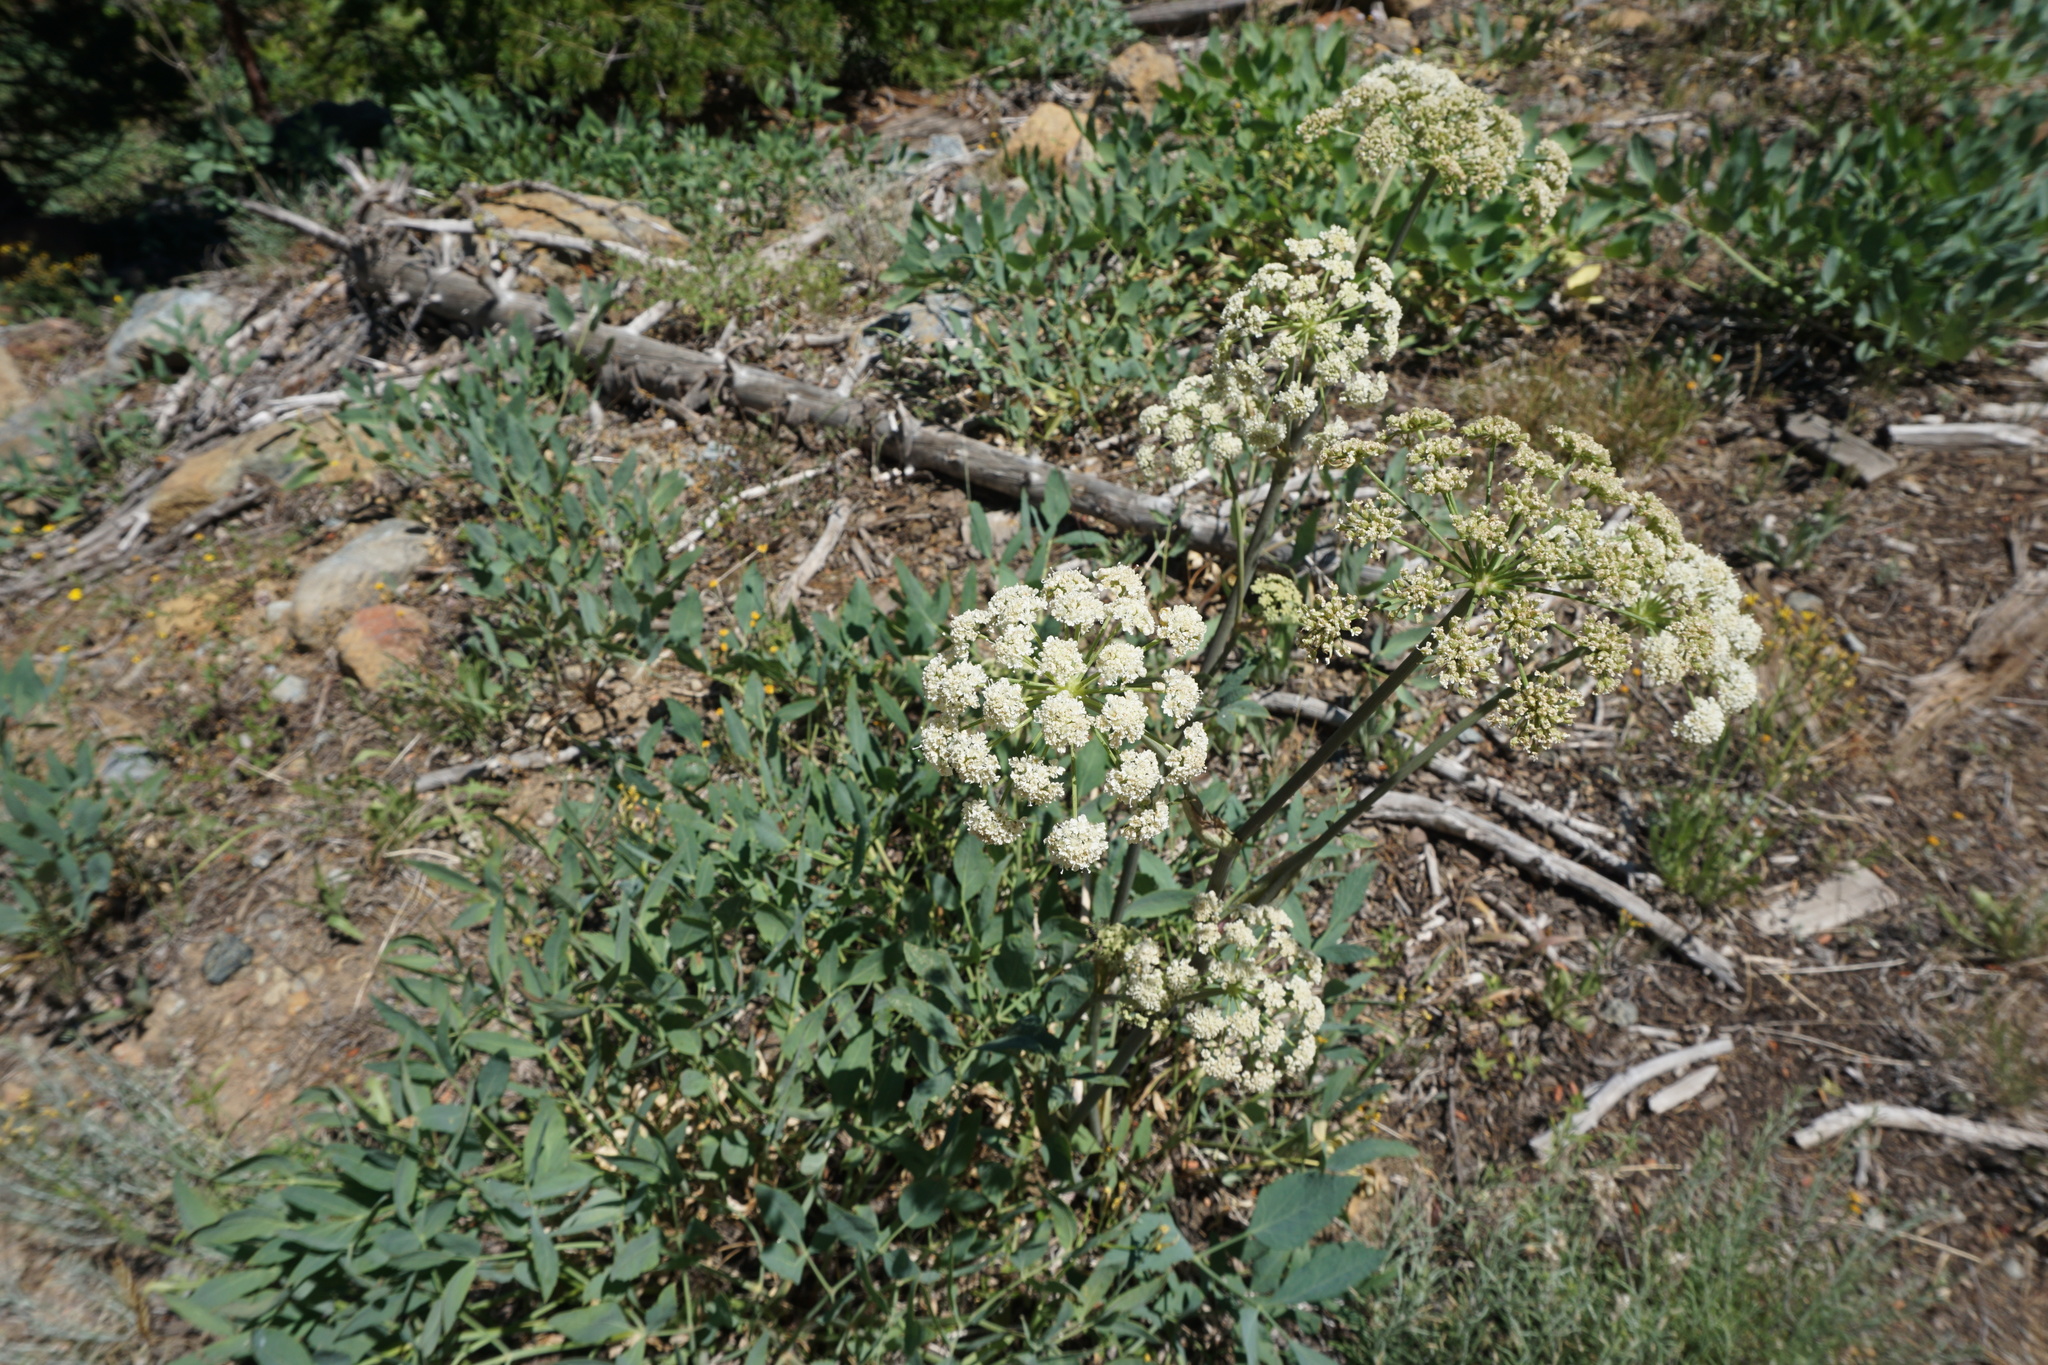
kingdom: Plantae
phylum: Tracheophyta
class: Magnoliopsida
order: Apiales
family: Apiaceae
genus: Angelica
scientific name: Angelica tomentosa
